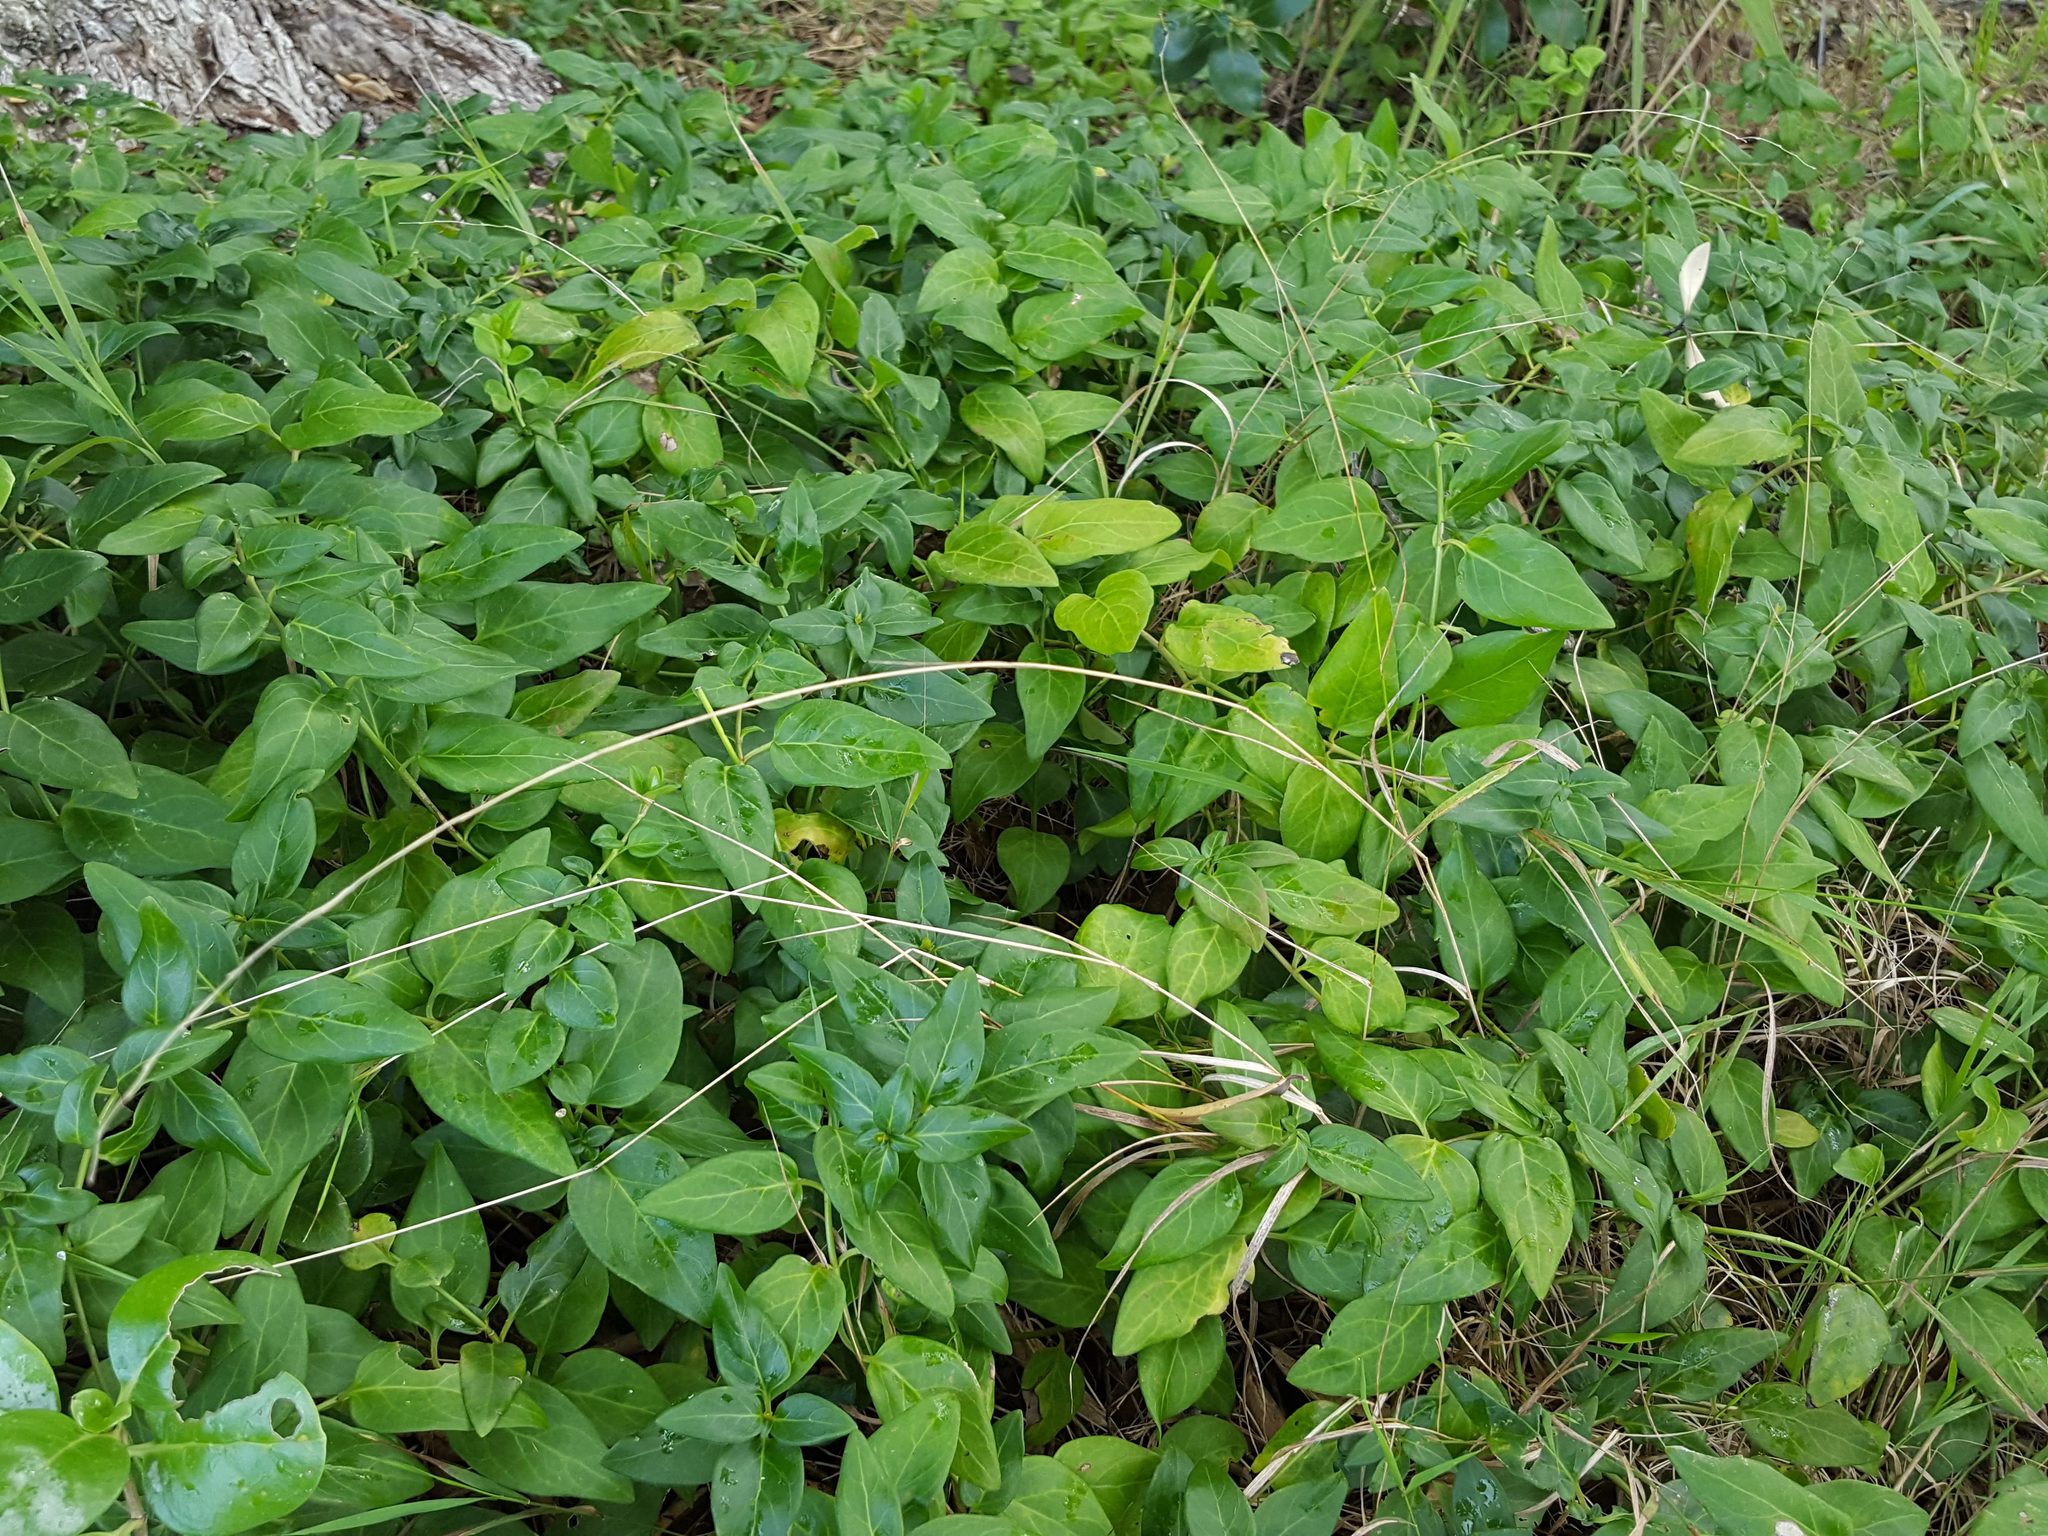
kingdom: Plantae
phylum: Tracheophyta
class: Magnoliopsida
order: Gentianales
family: Apocynaceae
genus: Vinca
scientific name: Vinca major
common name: Greater periwinkle
